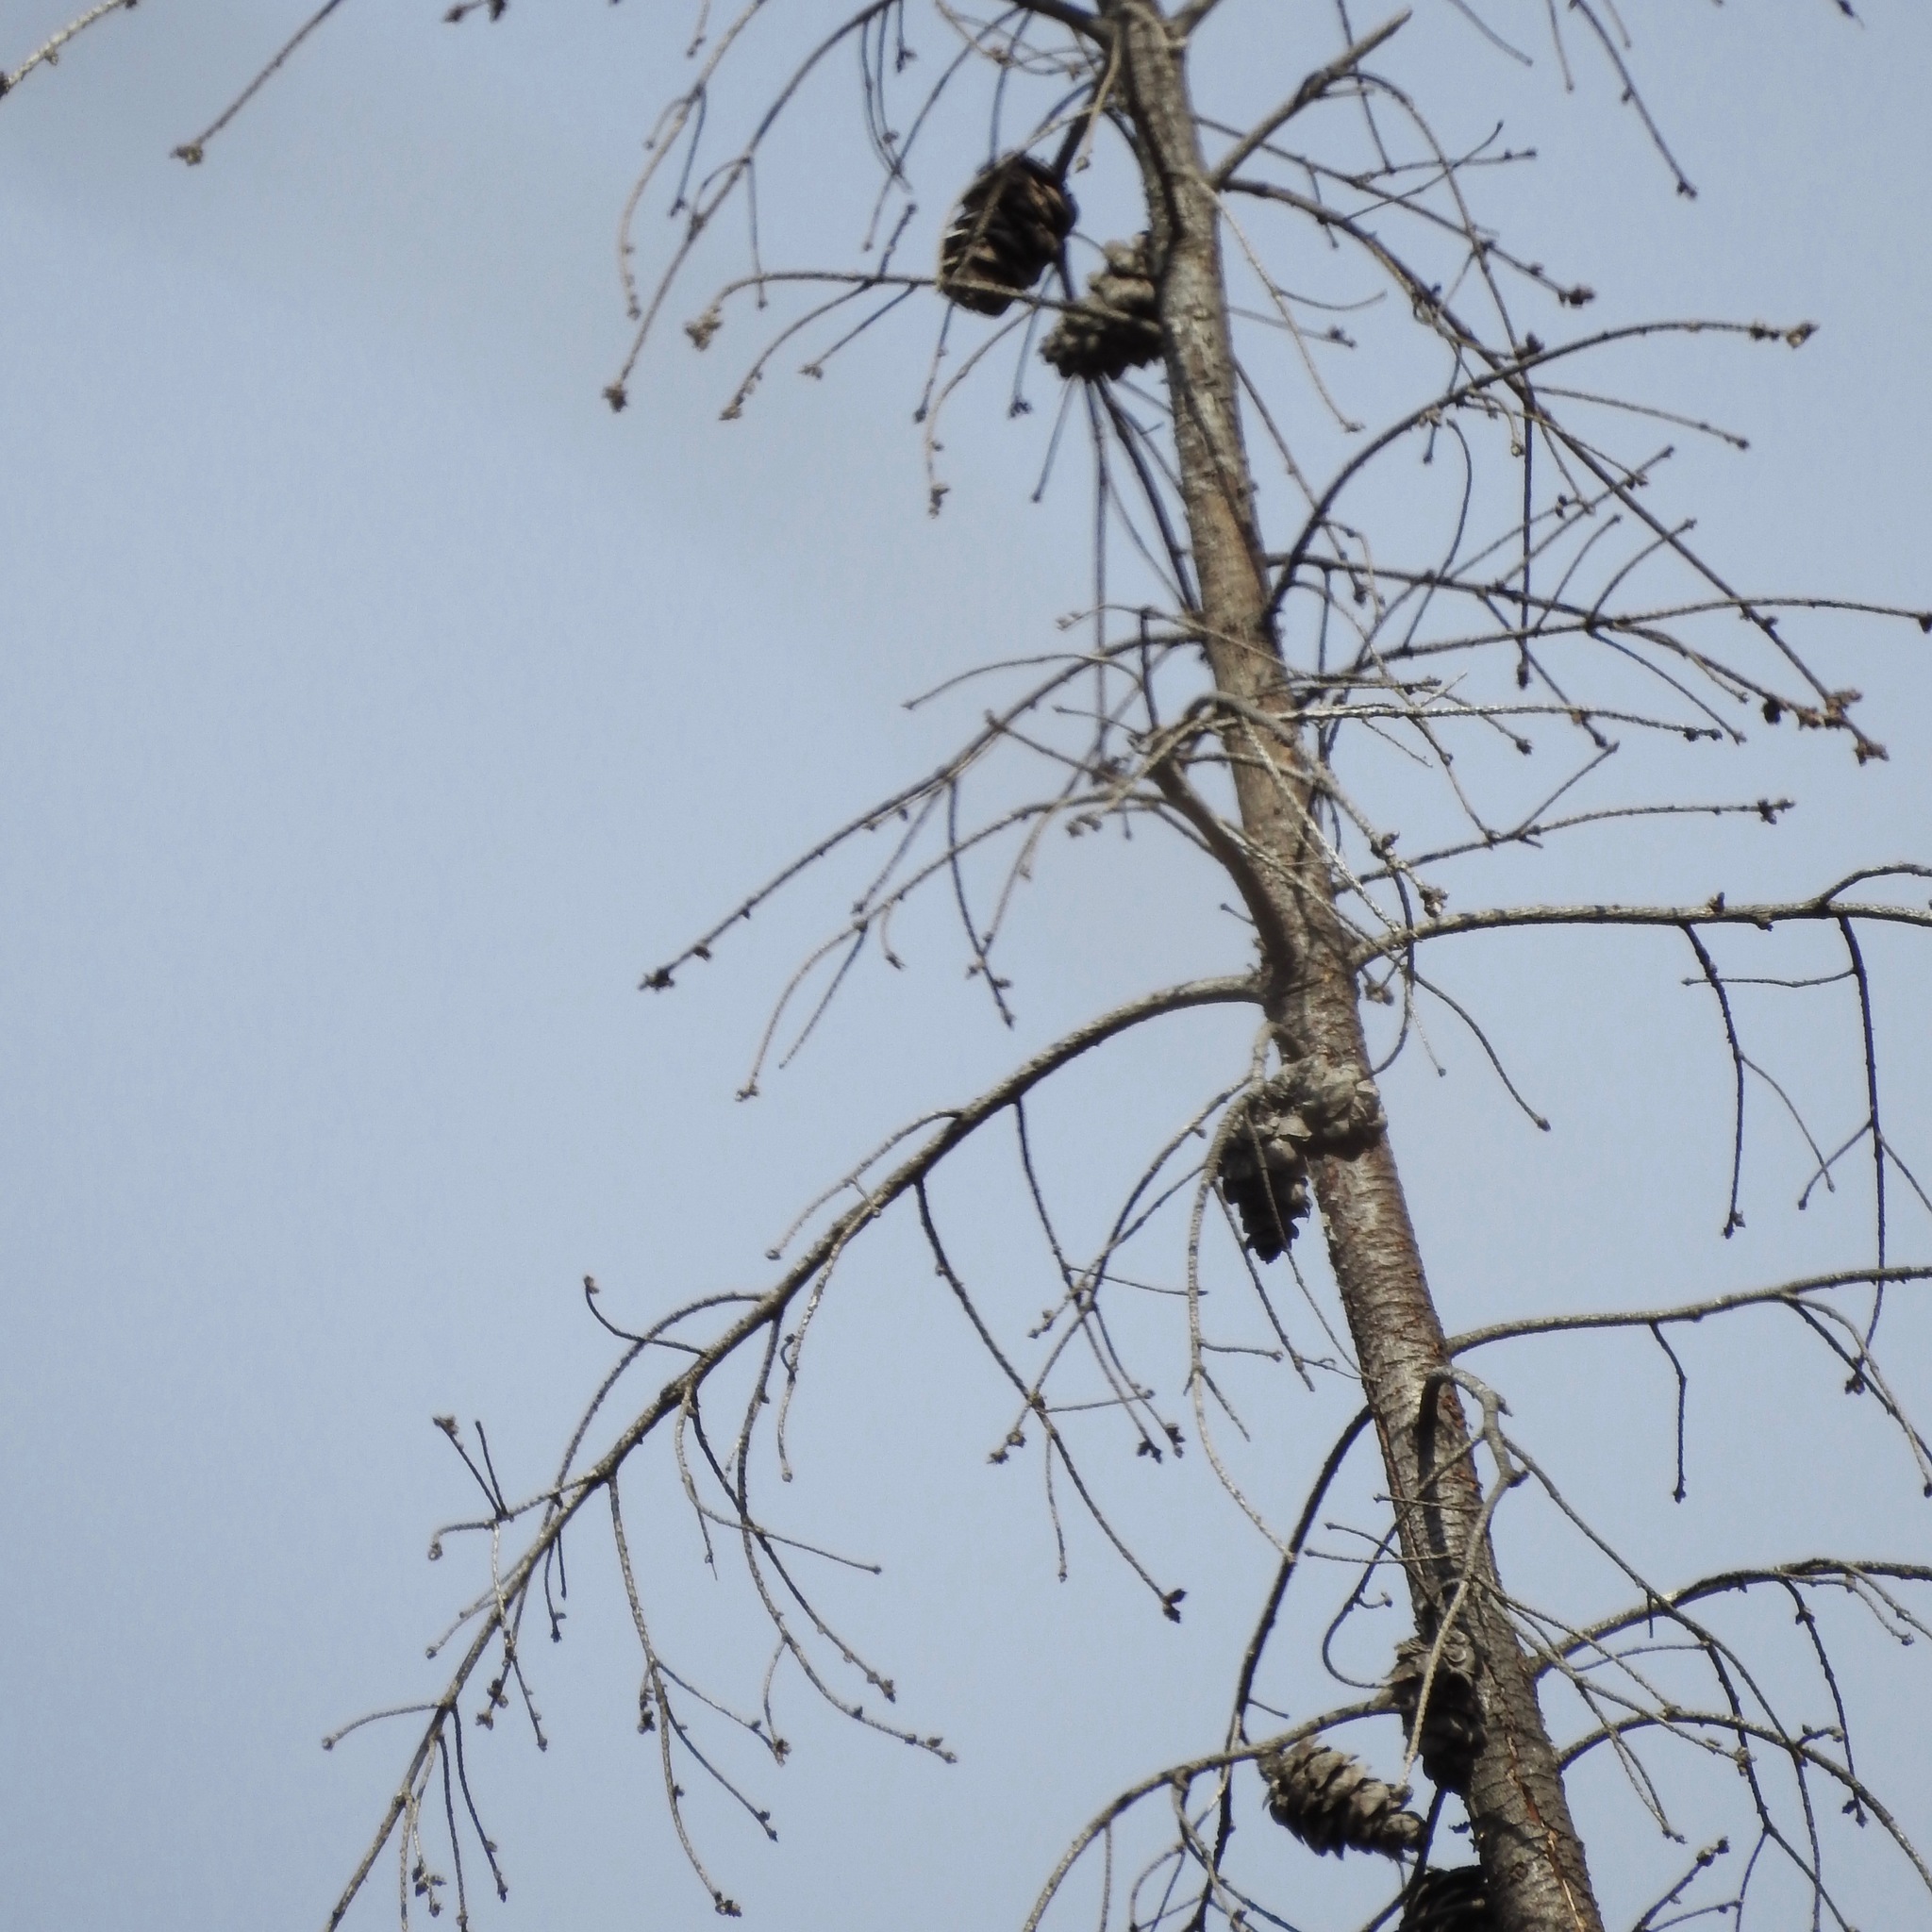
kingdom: Plantae
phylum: Tracheophyta
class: Pinopsida
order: Pinales
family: Pinaceae
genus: Pseudotsuga
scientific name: Pseudotsuga menziesii
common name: Douglas fir
